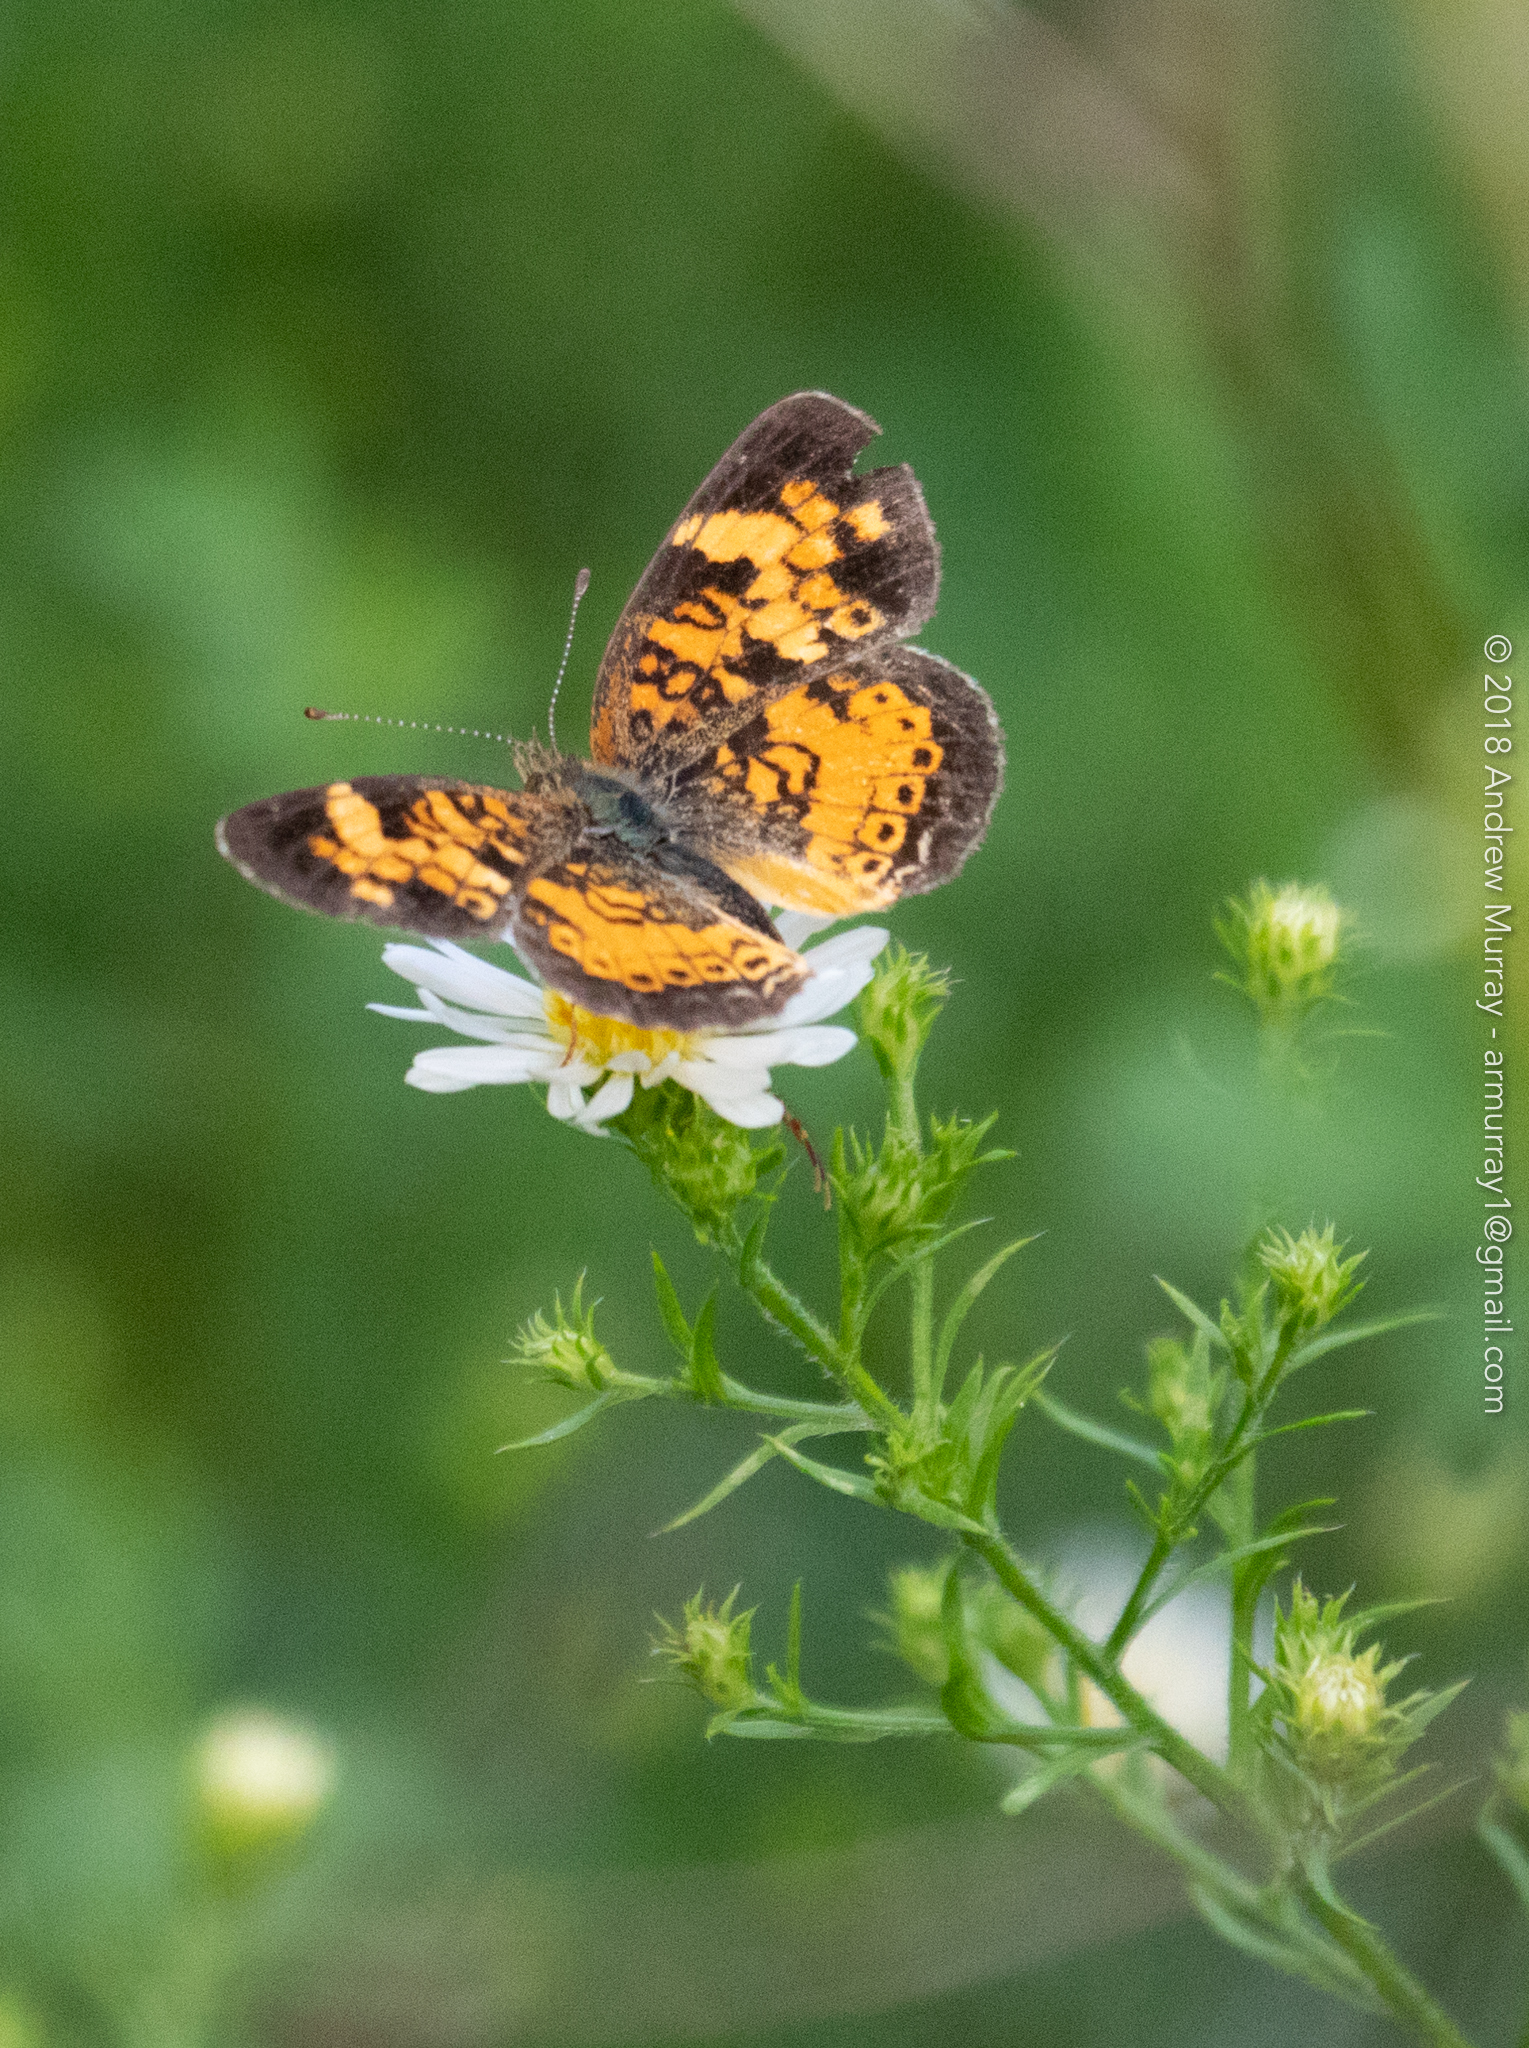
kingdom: Animalia
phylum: Arthropoda
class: Insecta
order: Lepidoptera
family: Nymphalidae
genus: Phyciodes
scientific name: Phyciodes tharos
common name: Pearl crescent
